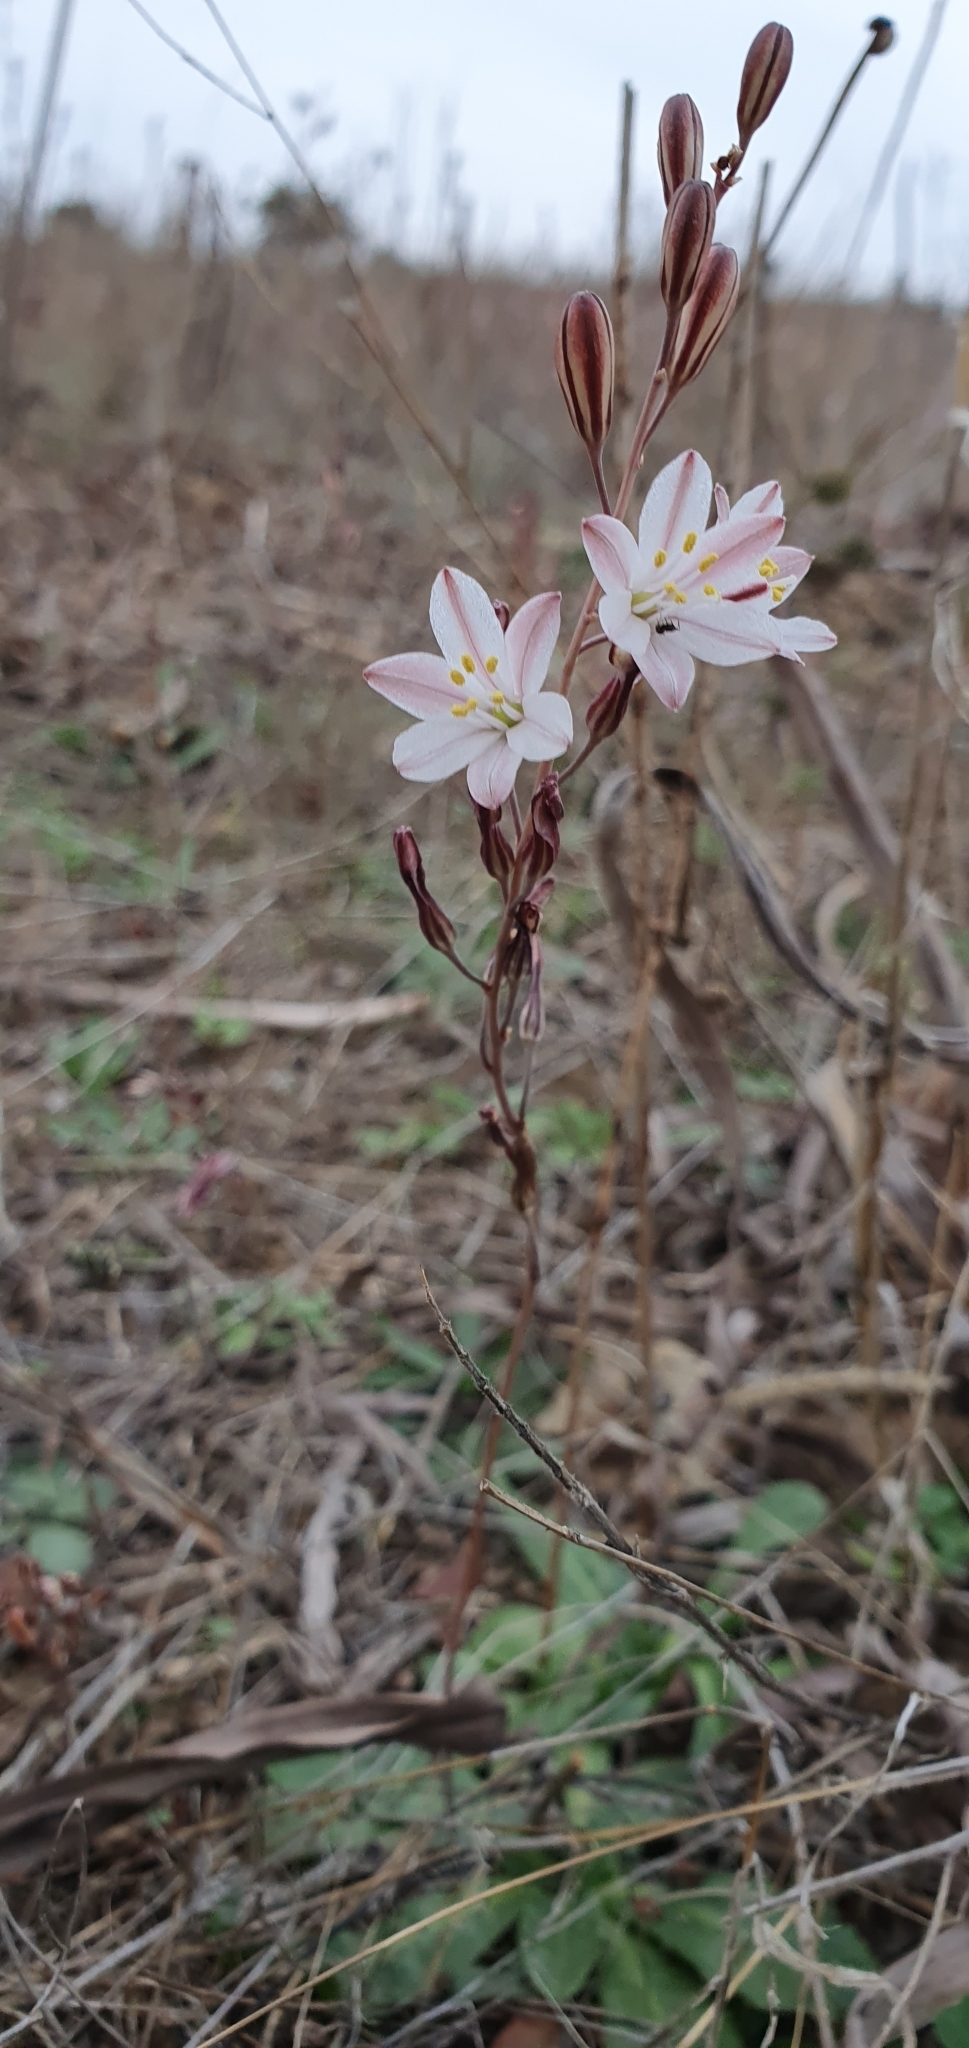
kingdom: Plantae
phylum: Tracheophyta
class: Liliopsida
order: Asparagales
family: Asparagaceae
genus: Drimia
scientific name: Drimia fugax
